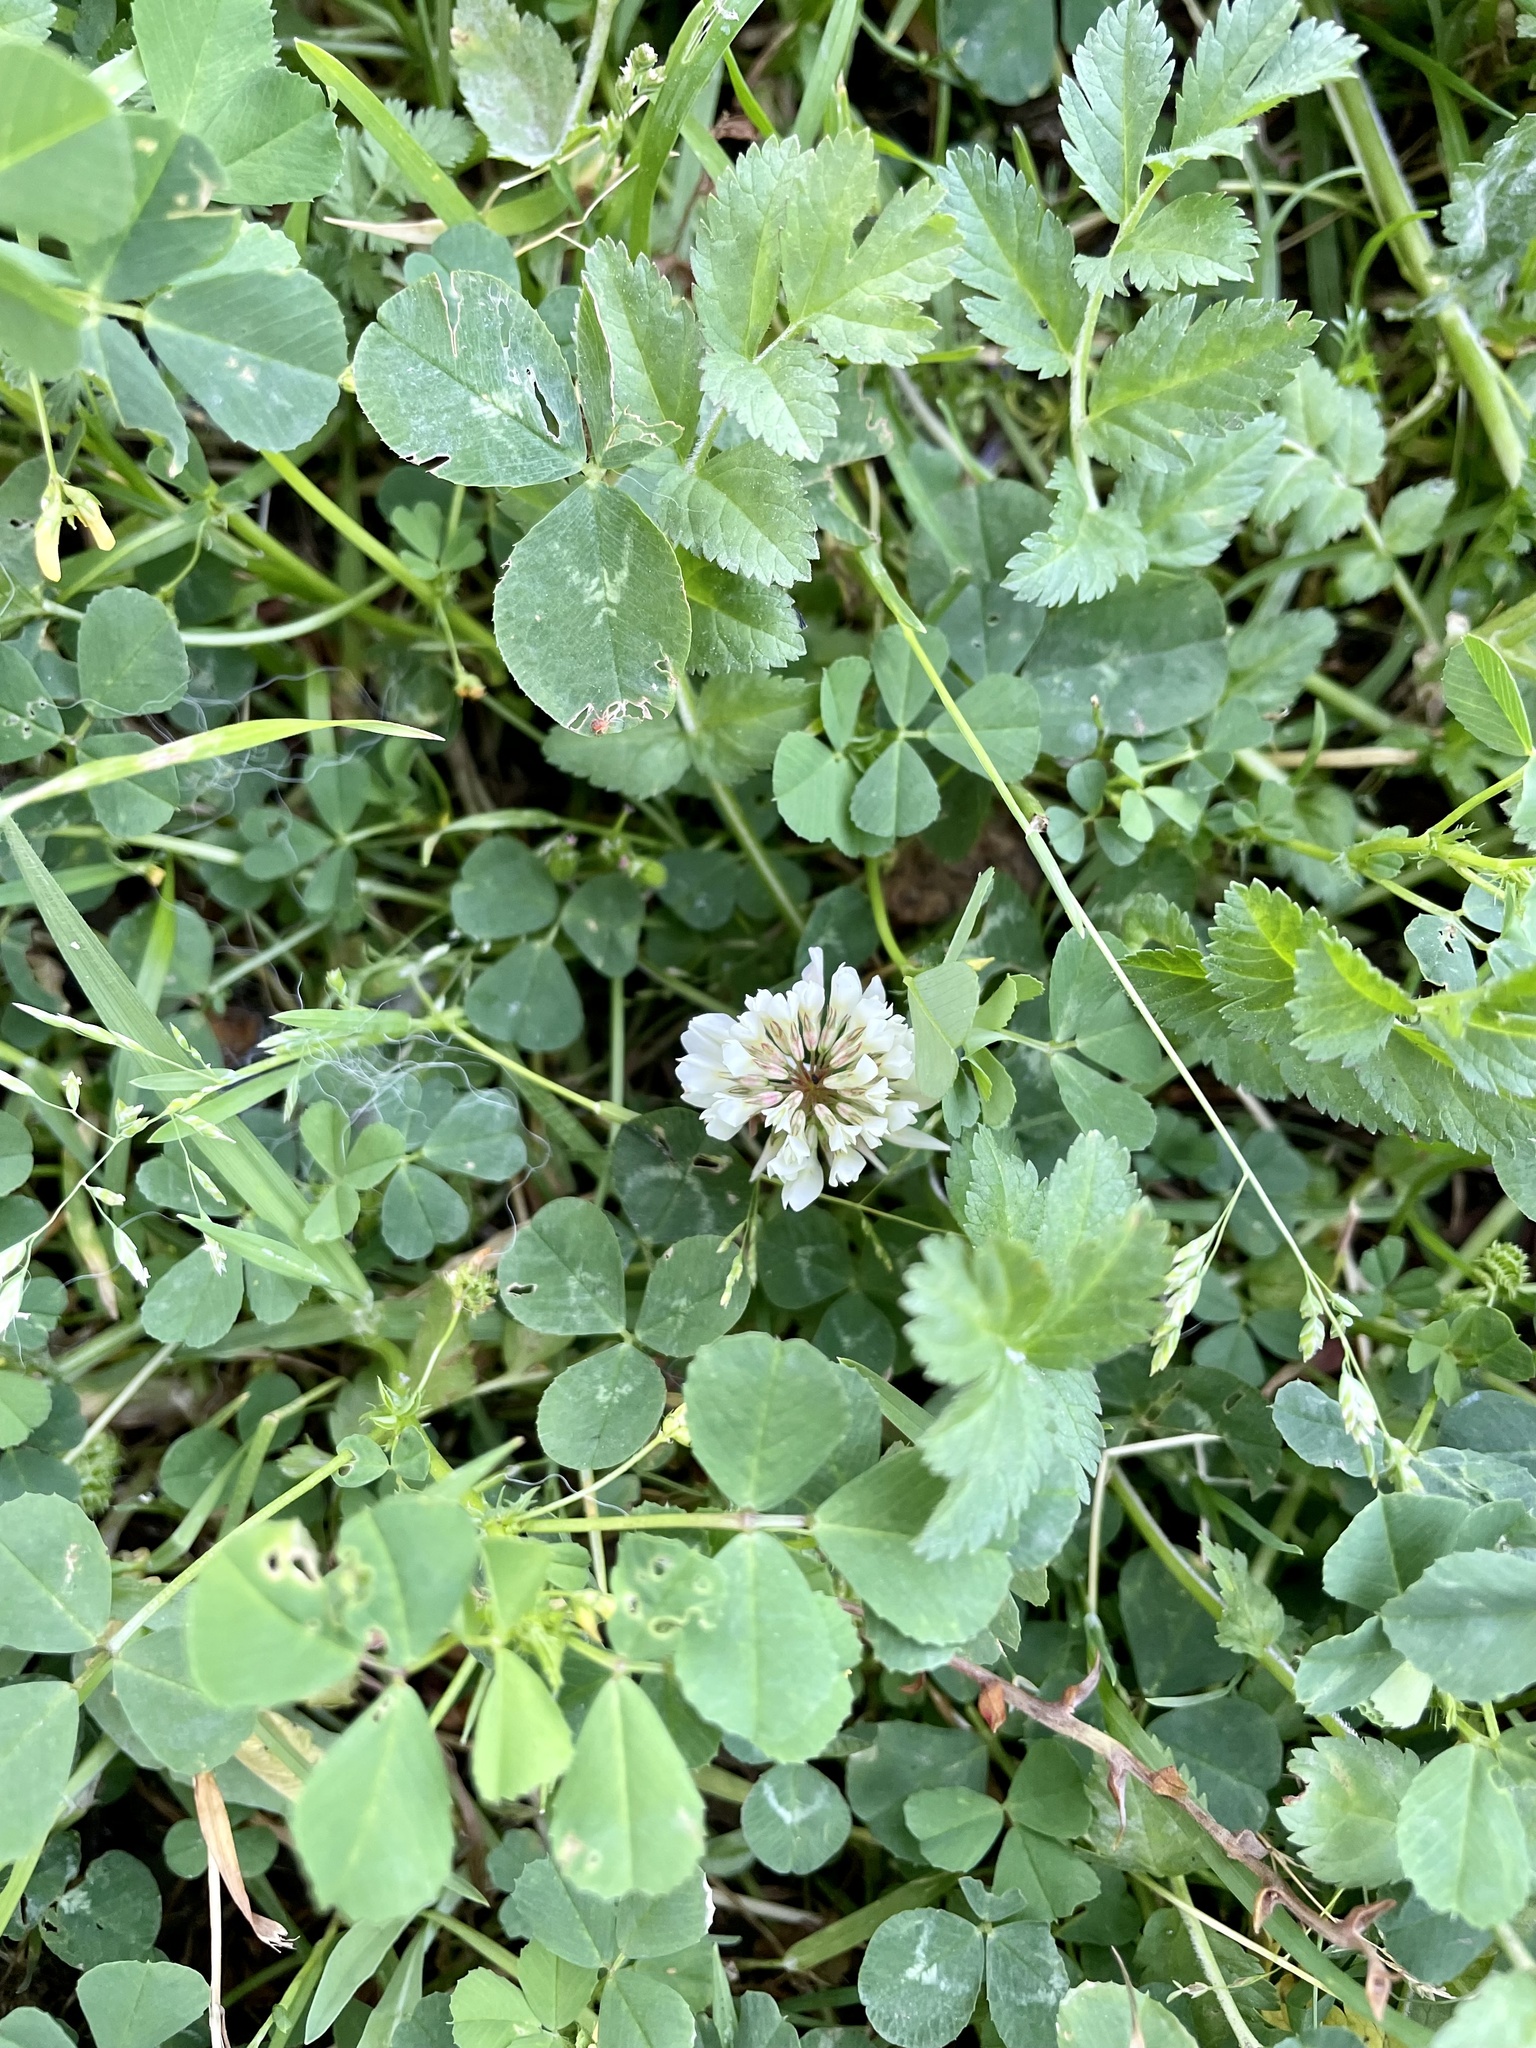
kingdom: Plantae
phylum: Tracheophyta
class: Magnoliopsida
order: Fabales
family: Fabaceae
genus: Trifolium
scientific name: Trifolium repens
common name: White clover
